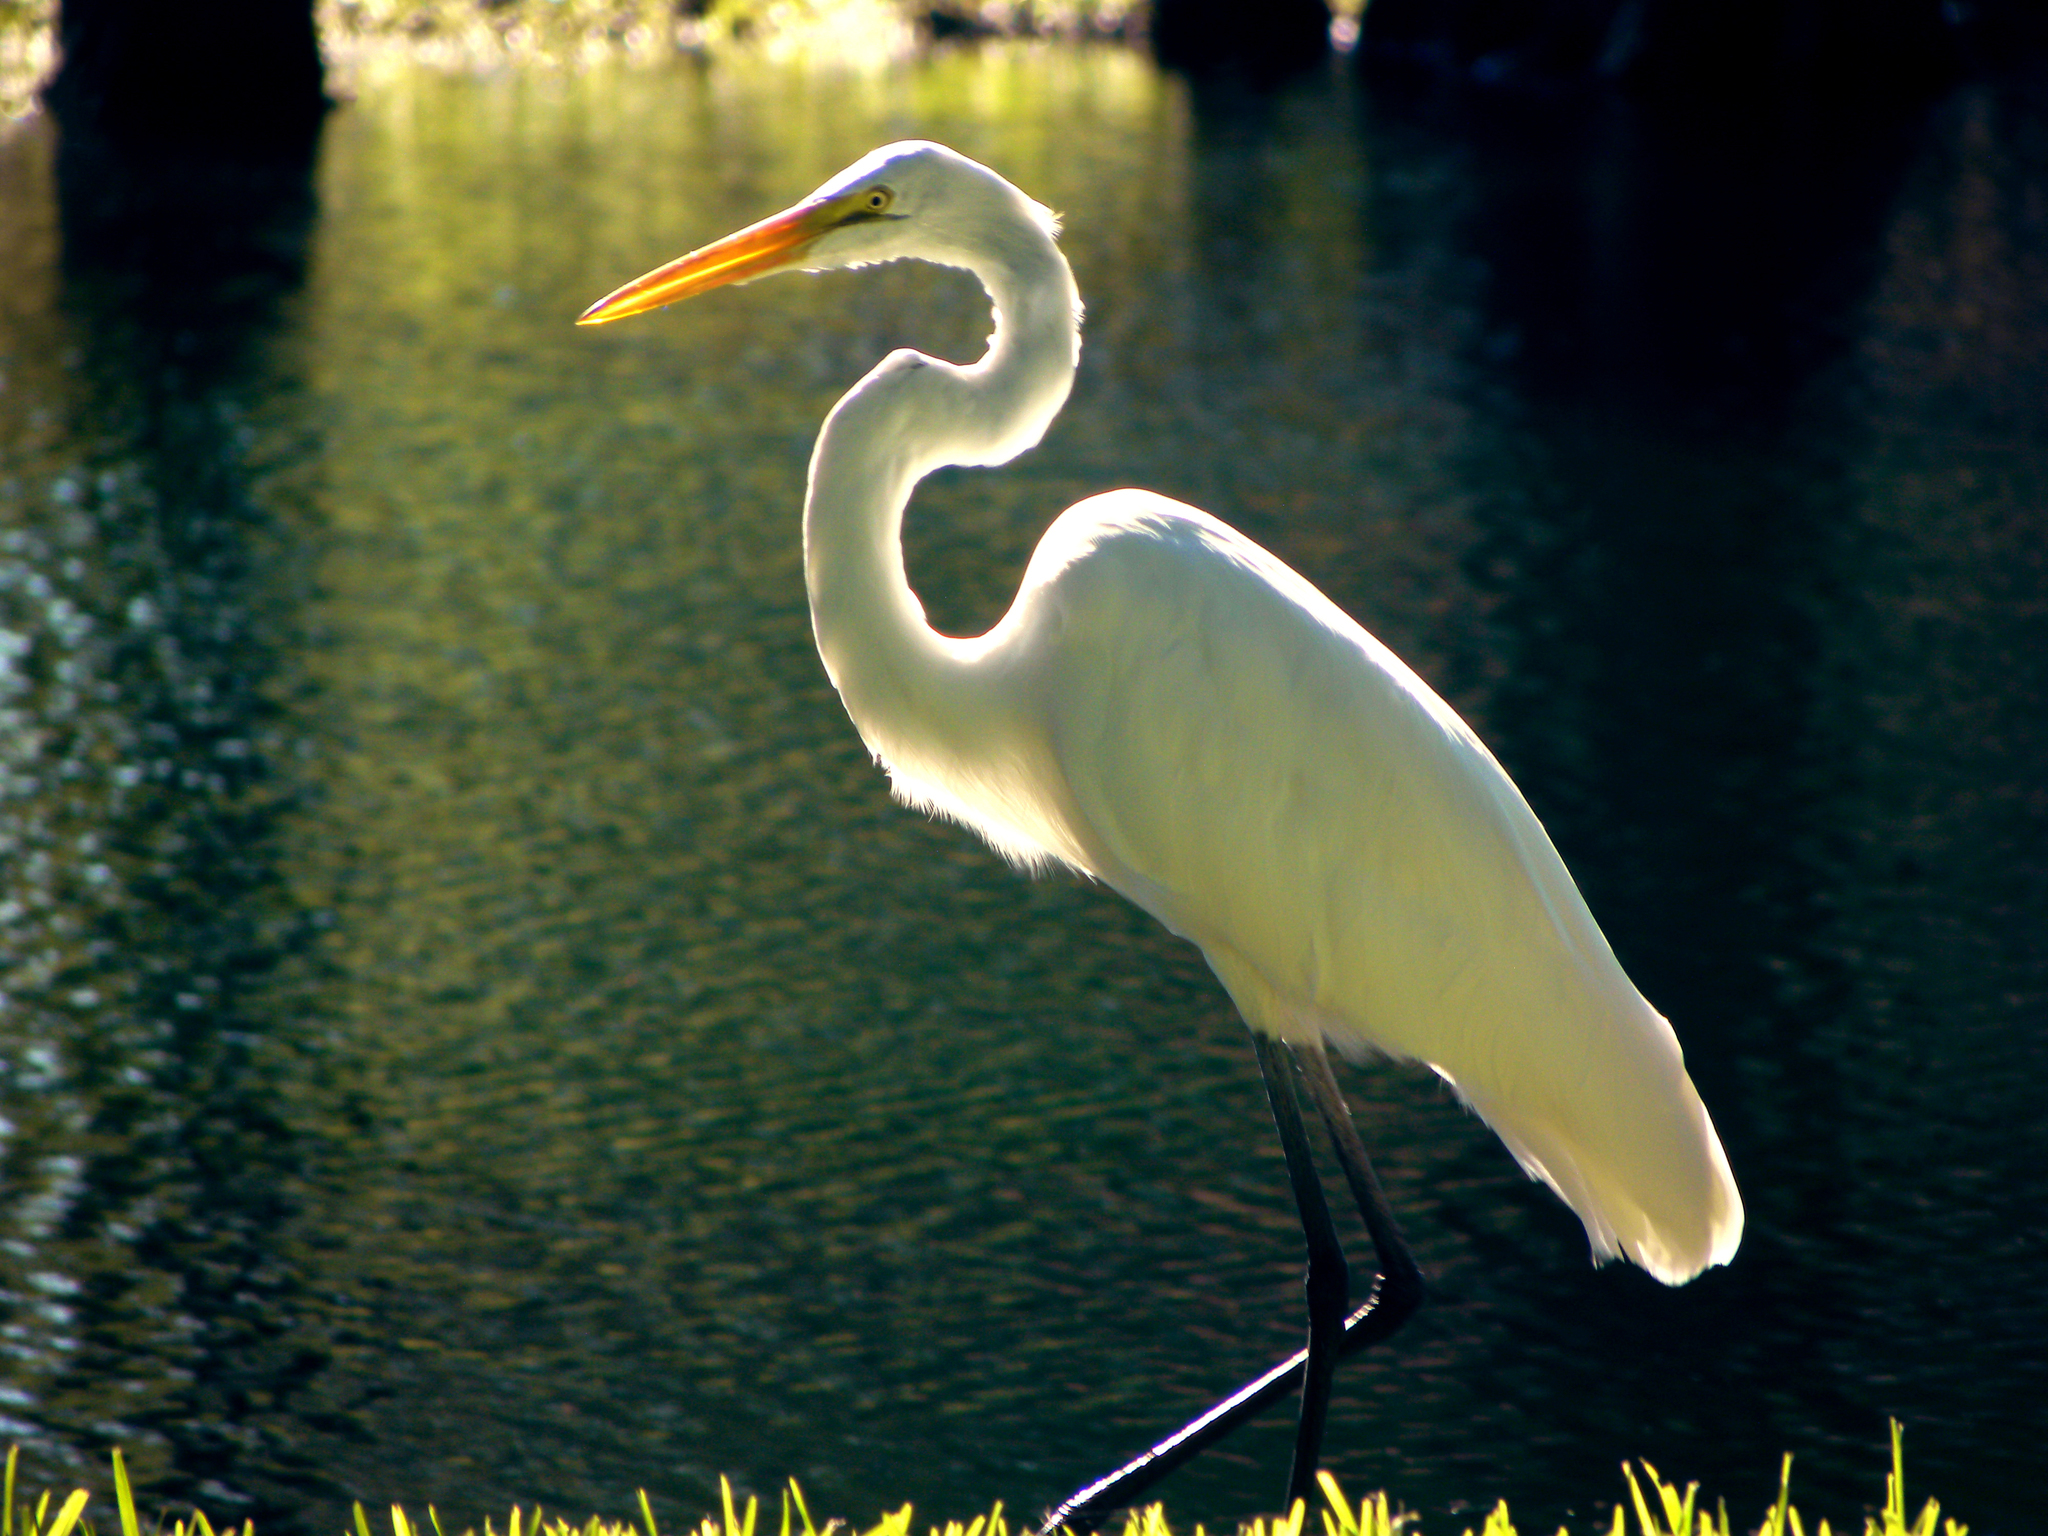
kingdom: Animalia
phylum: Chordata
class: Aves
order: Pelecaniformes
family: Ardeidae
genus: Ardea
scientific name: Ardea alba
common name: Great egret
